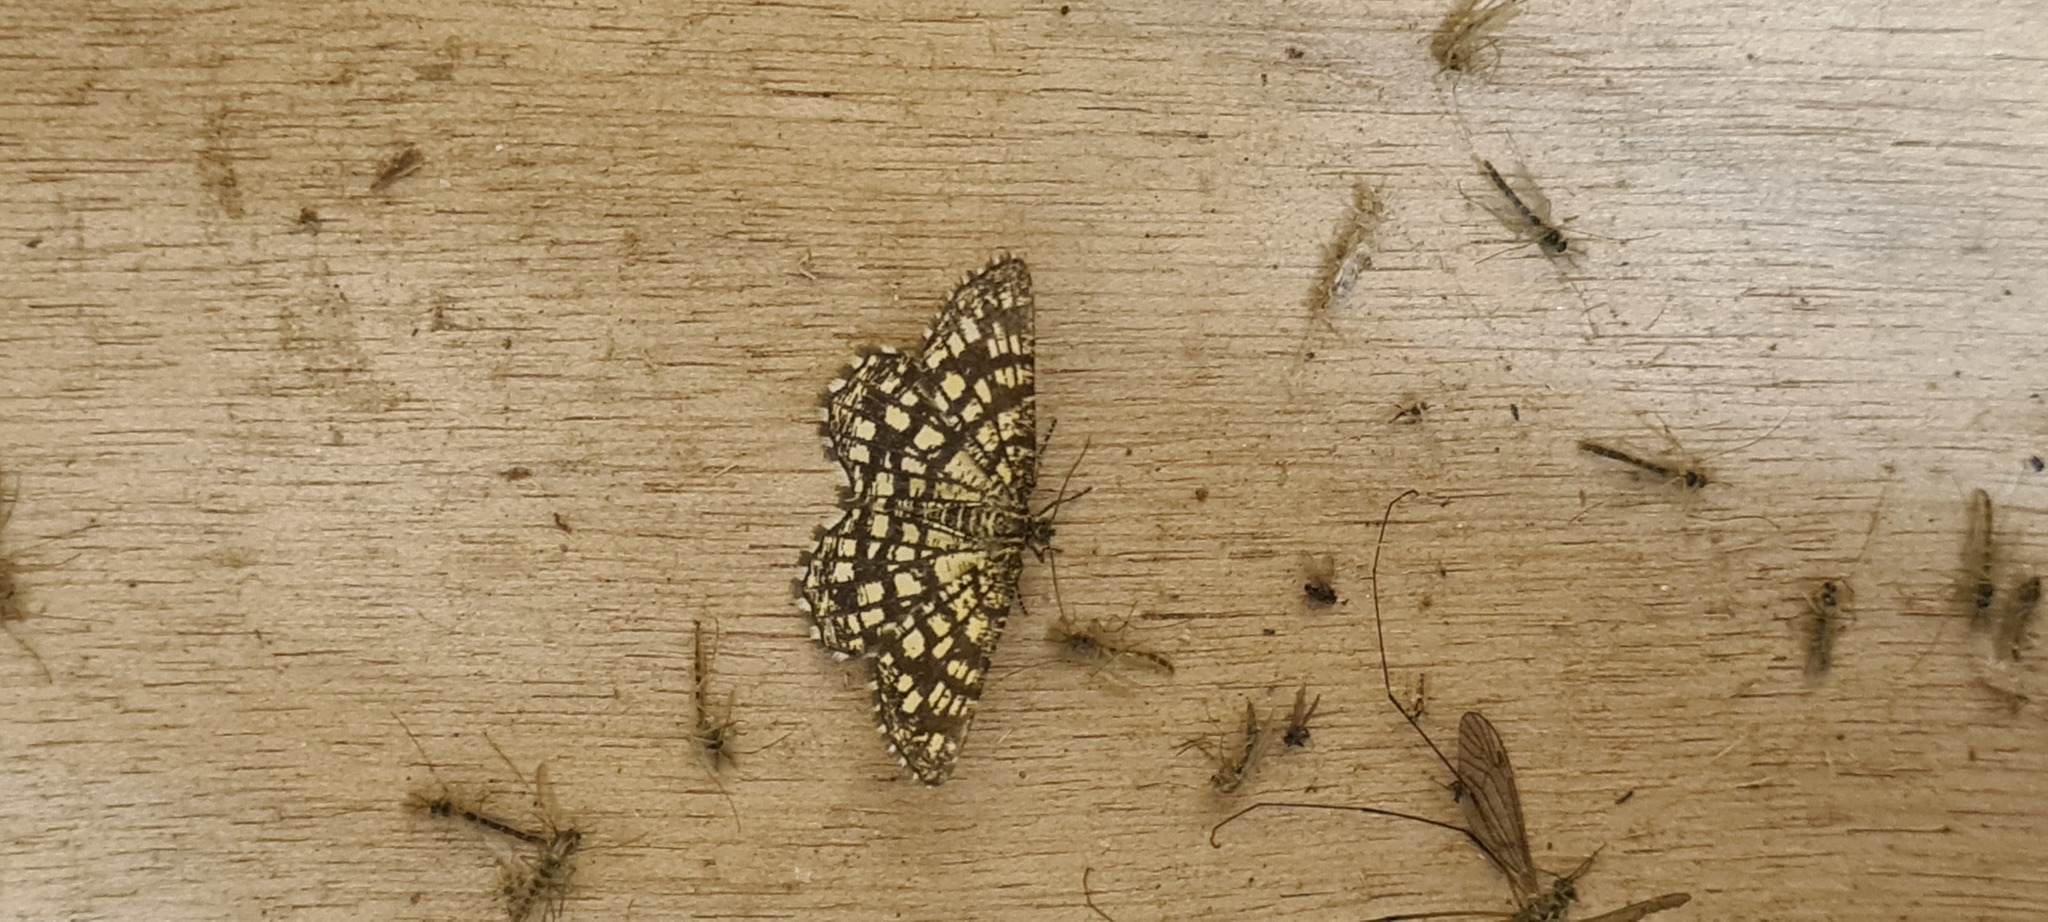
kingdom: Animalia
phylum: Arthropoda
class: Insecta
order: Lepidoptera
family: Geometridae
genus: Chiasmia
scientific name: Chiasmia clathrata
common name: Latticed heath
